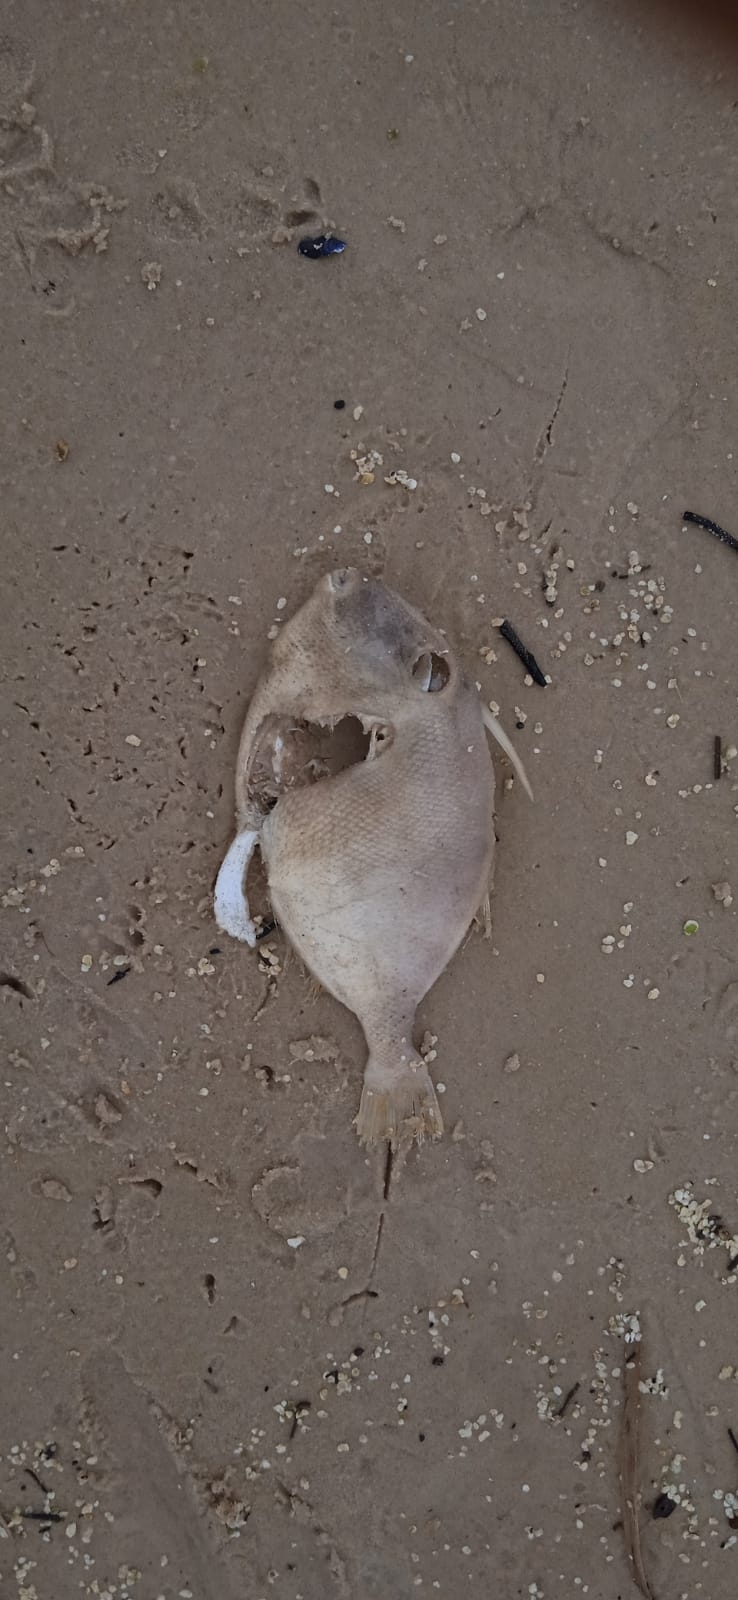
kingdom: Animalia
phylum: Chordata
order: Tetraodontiformes
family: Balistidae
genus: Balistes
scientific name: Balistes capriscus
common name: Grey triggerfish
